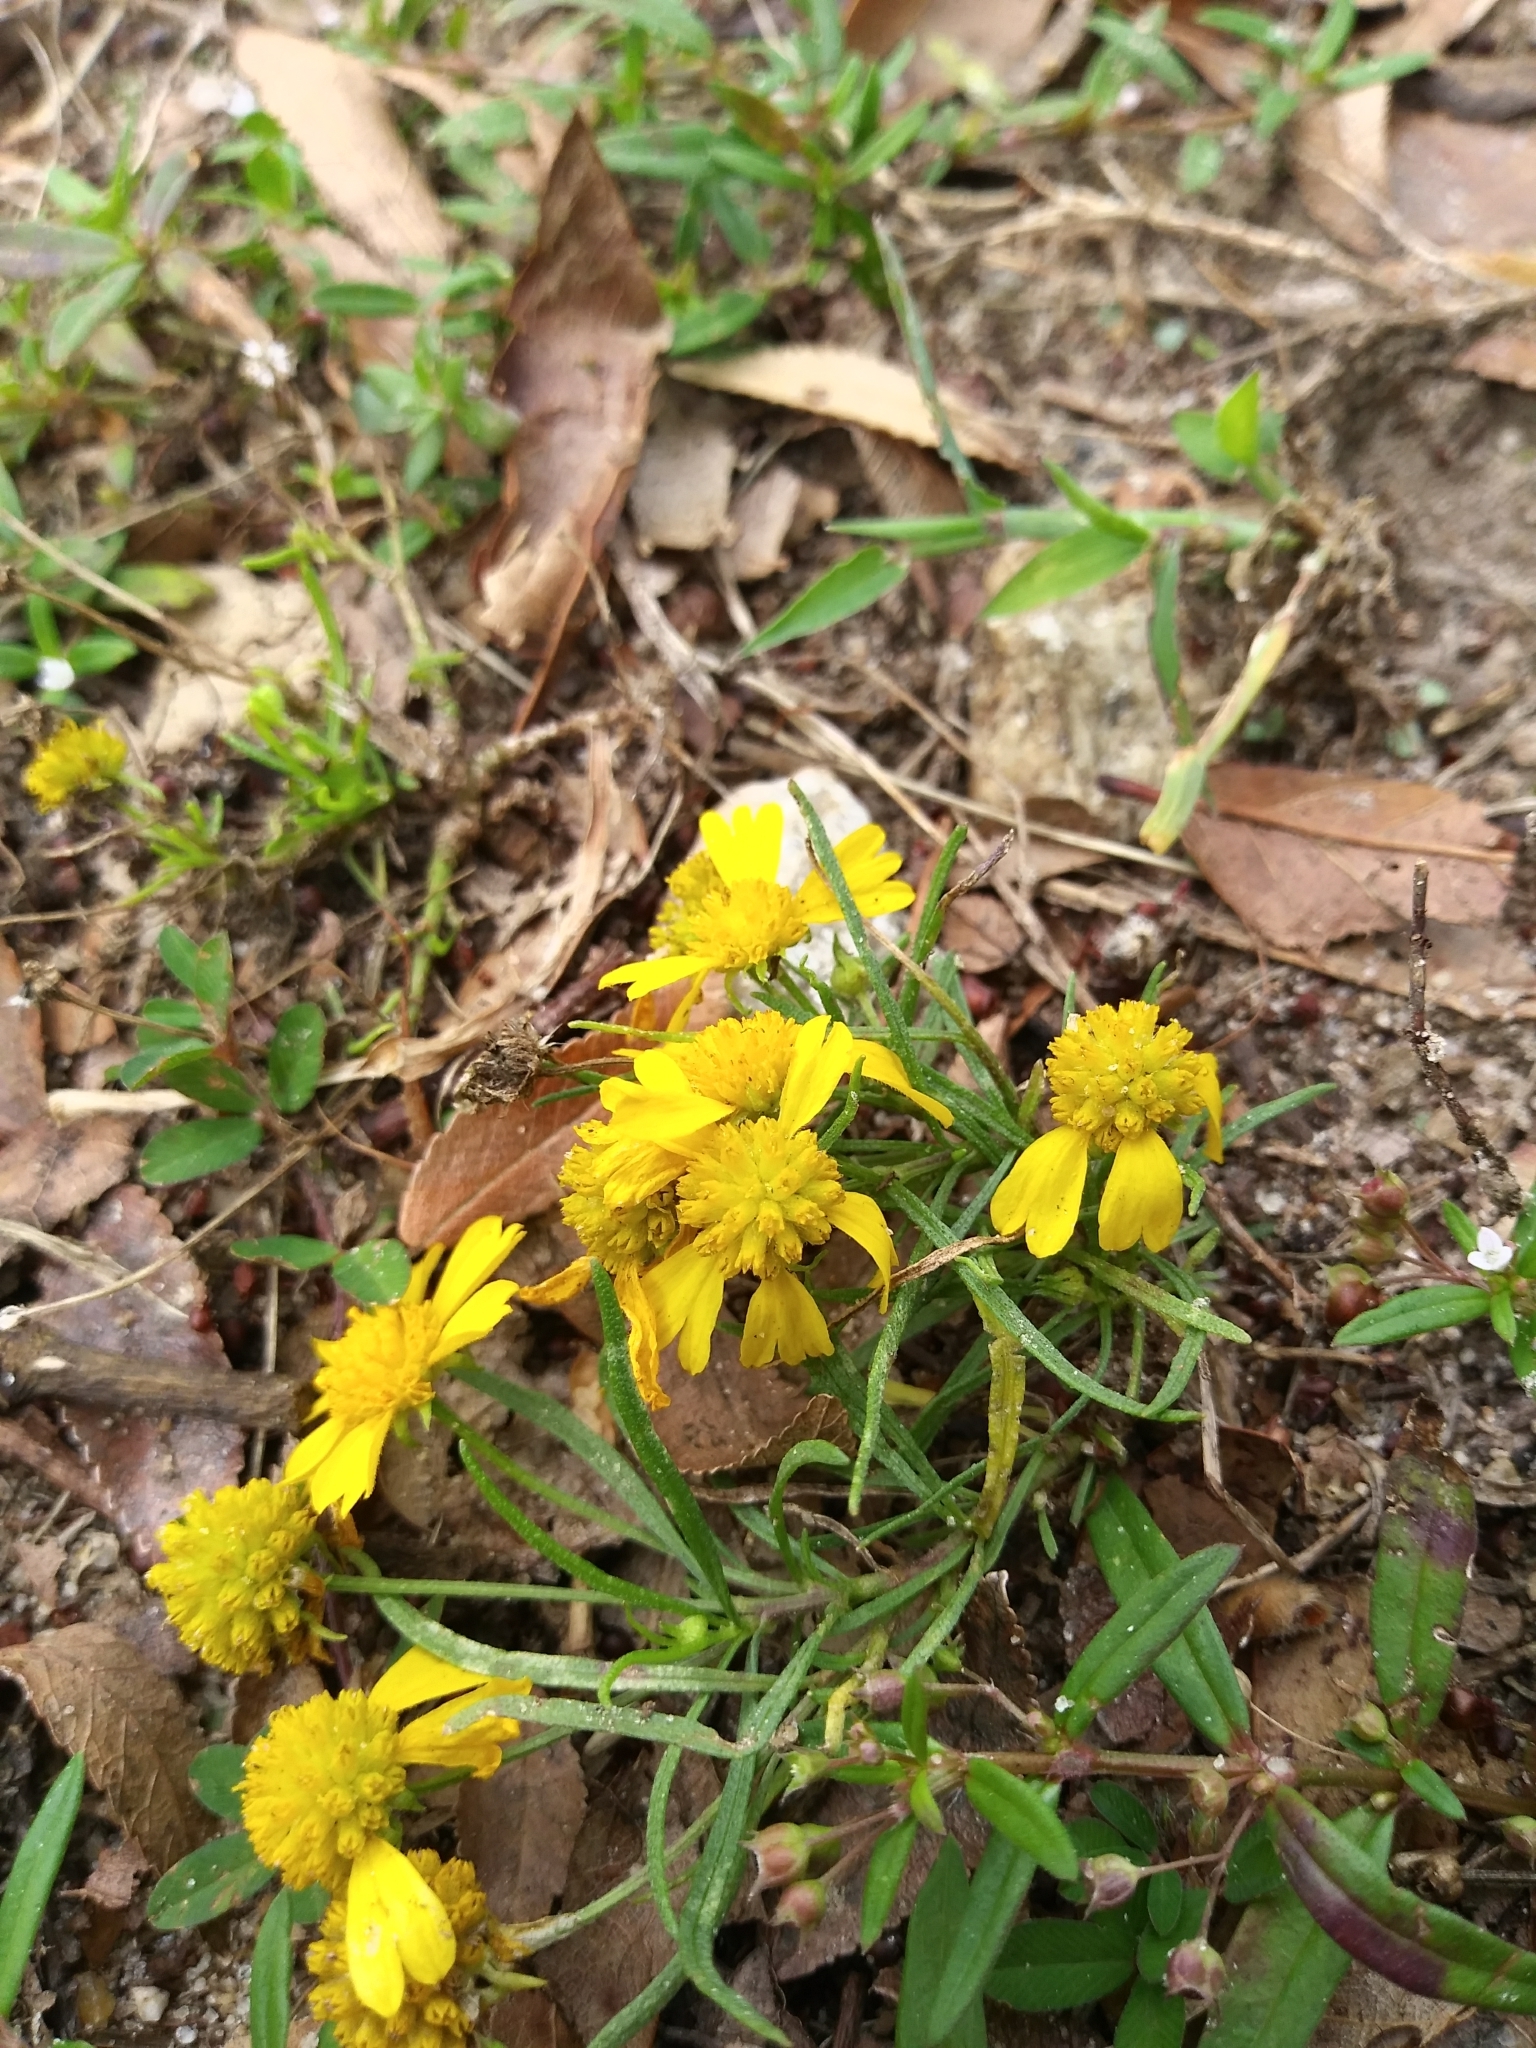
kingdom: Plantae
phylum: Tracheophyta
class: Magnoliopsida
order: Asterales
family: Asteraceae
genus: Helenium
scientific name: Helenium amarum
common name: Bitter sneezeweed
